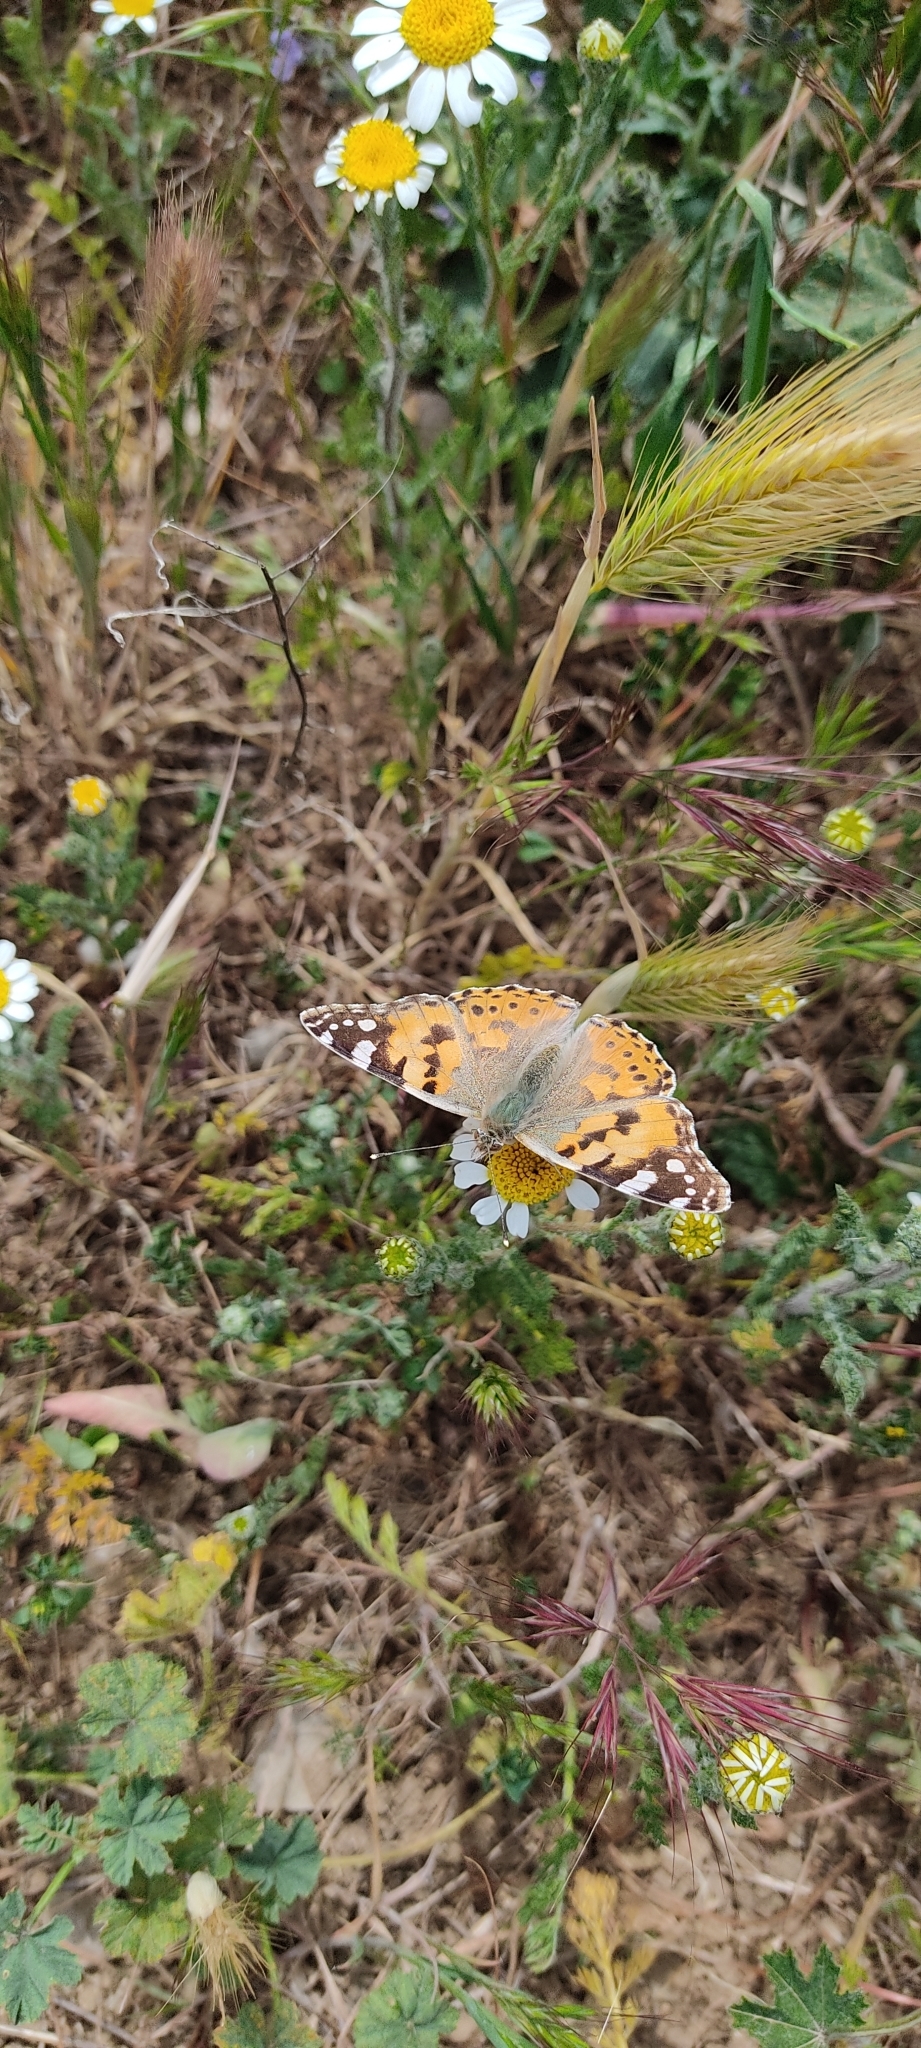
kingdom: Animalia
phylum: Arthropoda
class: Insecta
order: Lepidoptera
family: Nymphalidae
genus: Vanessa
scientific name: Vanessa cardui
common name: Painted lady
